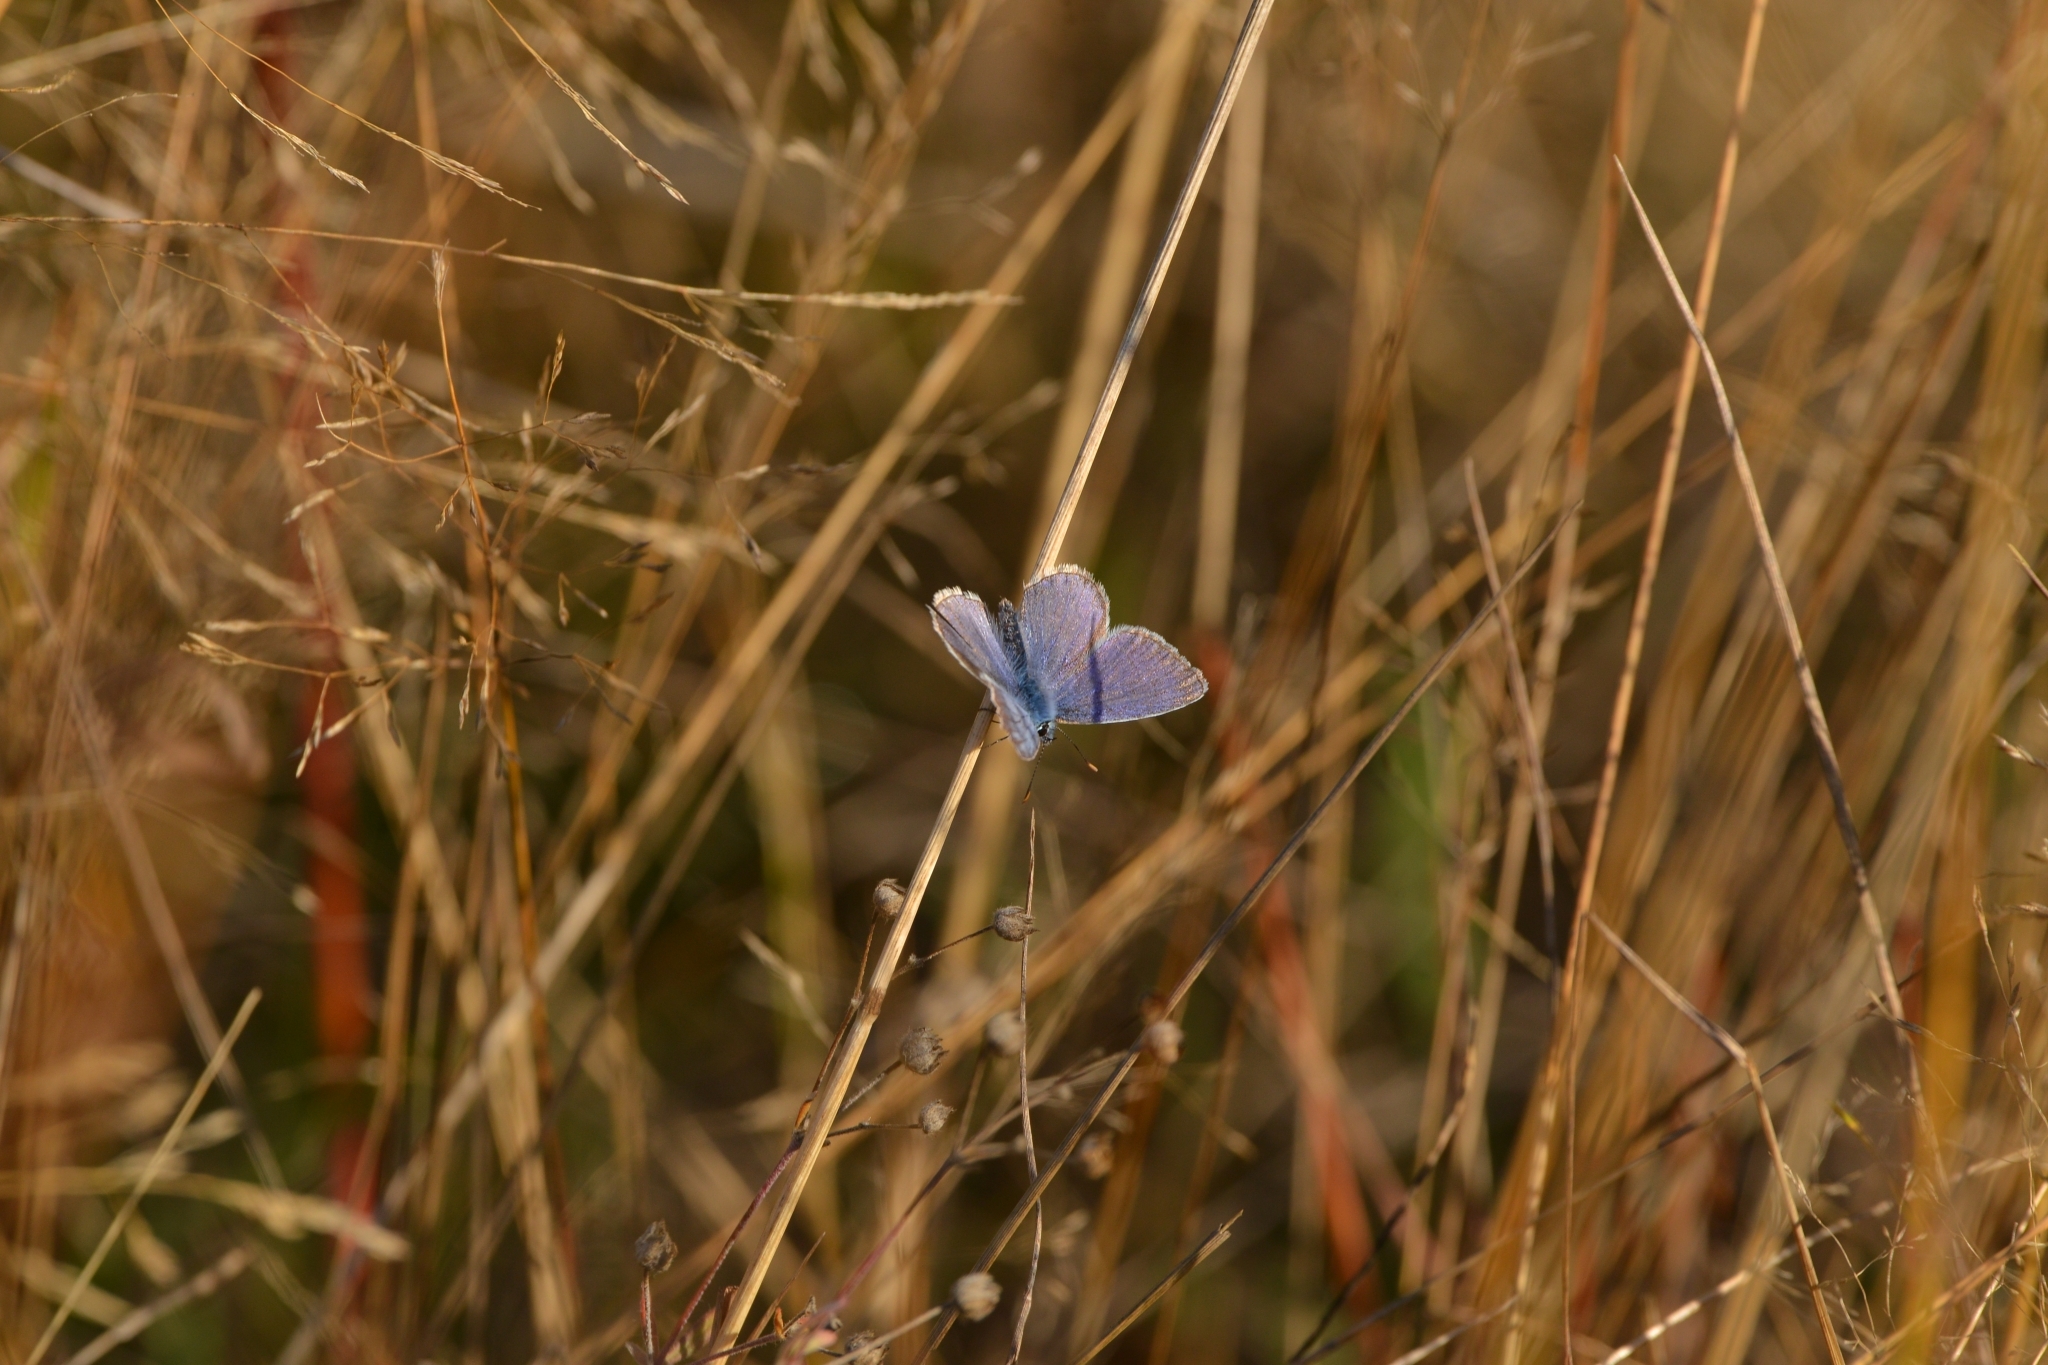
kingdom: Animalia
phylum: Arthropoda
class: Insecta
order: Lepidoptera
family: Lycaenidae
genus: Polyommatus
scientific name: Polyommatus icarus
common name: Common blue
